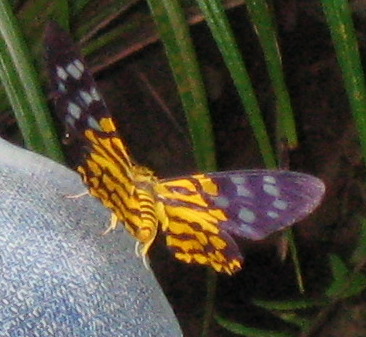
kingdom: Animalia
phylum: Arthropoda
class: Insecta
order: Lepidoptera
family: Geometridae
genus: Dysphania
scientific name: Dysphania subrepleta
